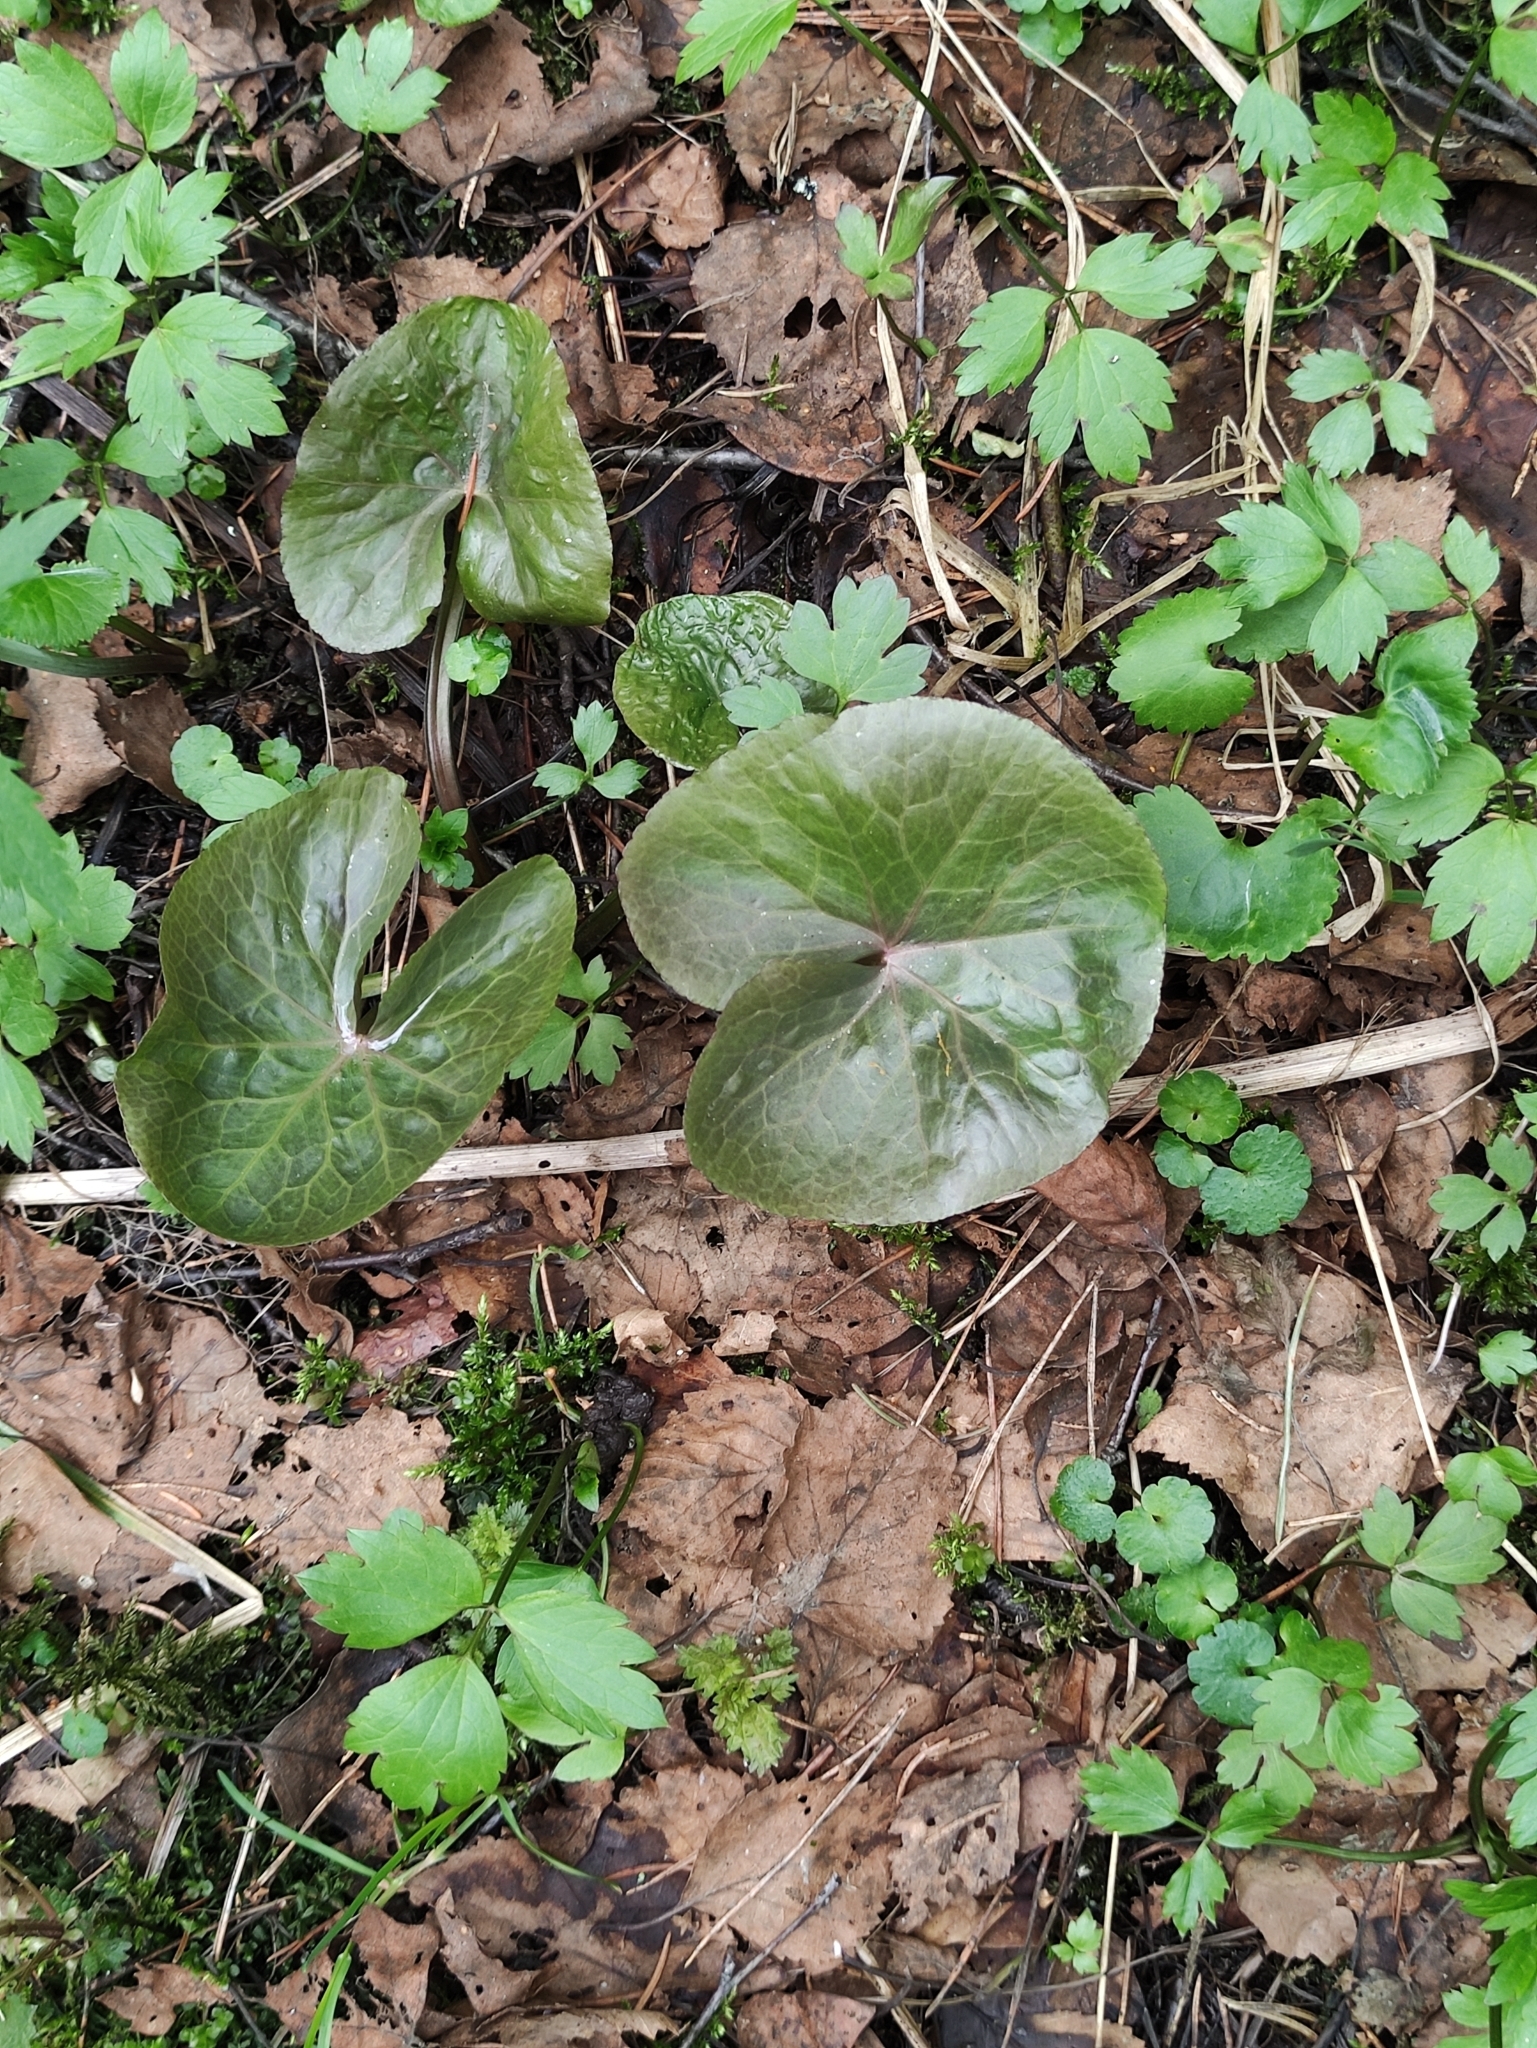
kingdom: Plantae
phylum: Tracheophyta
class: Magnoliopsida
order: Ranunculales
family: Ranunculaceae
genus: Caltha
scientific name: Caltha palustris
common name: Marsh marigold
